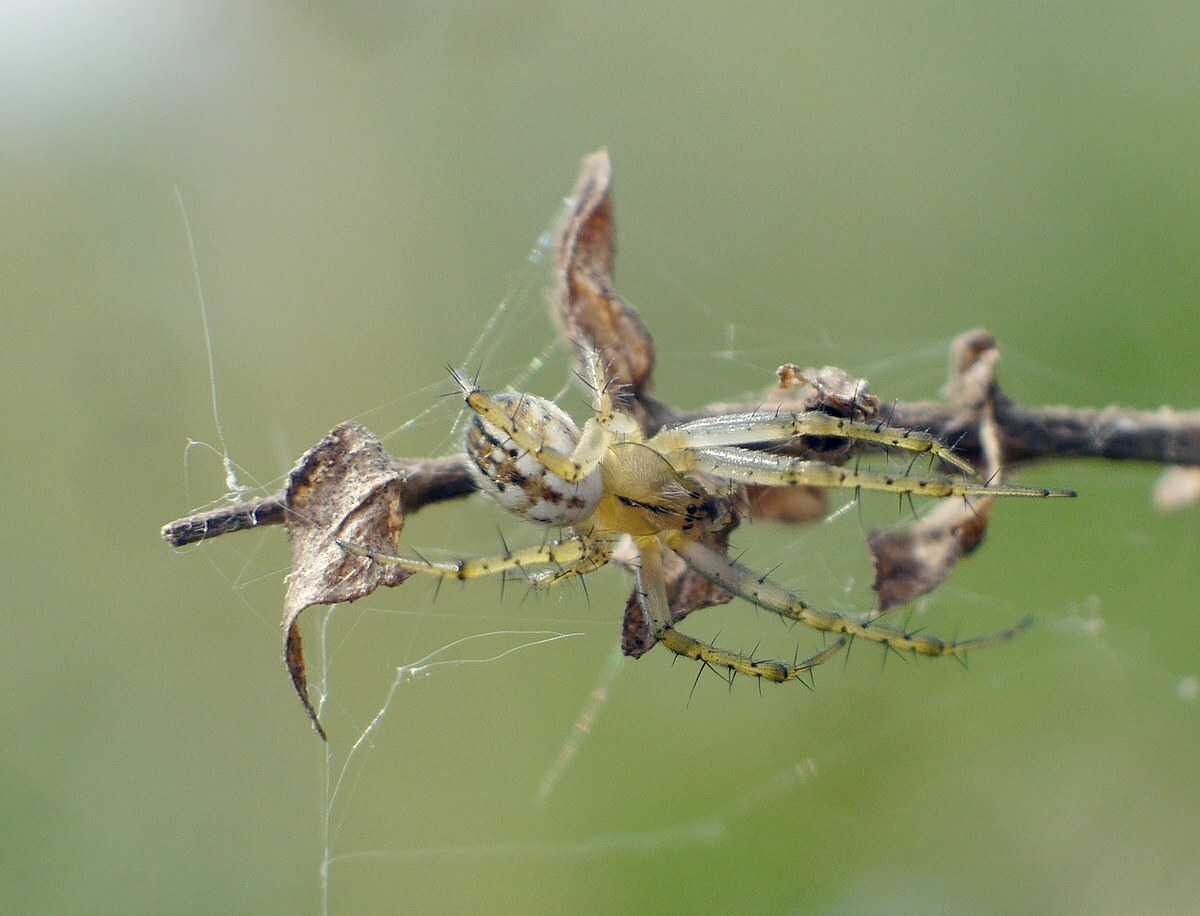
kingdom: Animalia
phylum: Arthropoda
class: Arachnida
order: Araneae
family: Araneidae
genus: Mangora
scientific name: Mangora acalypha
